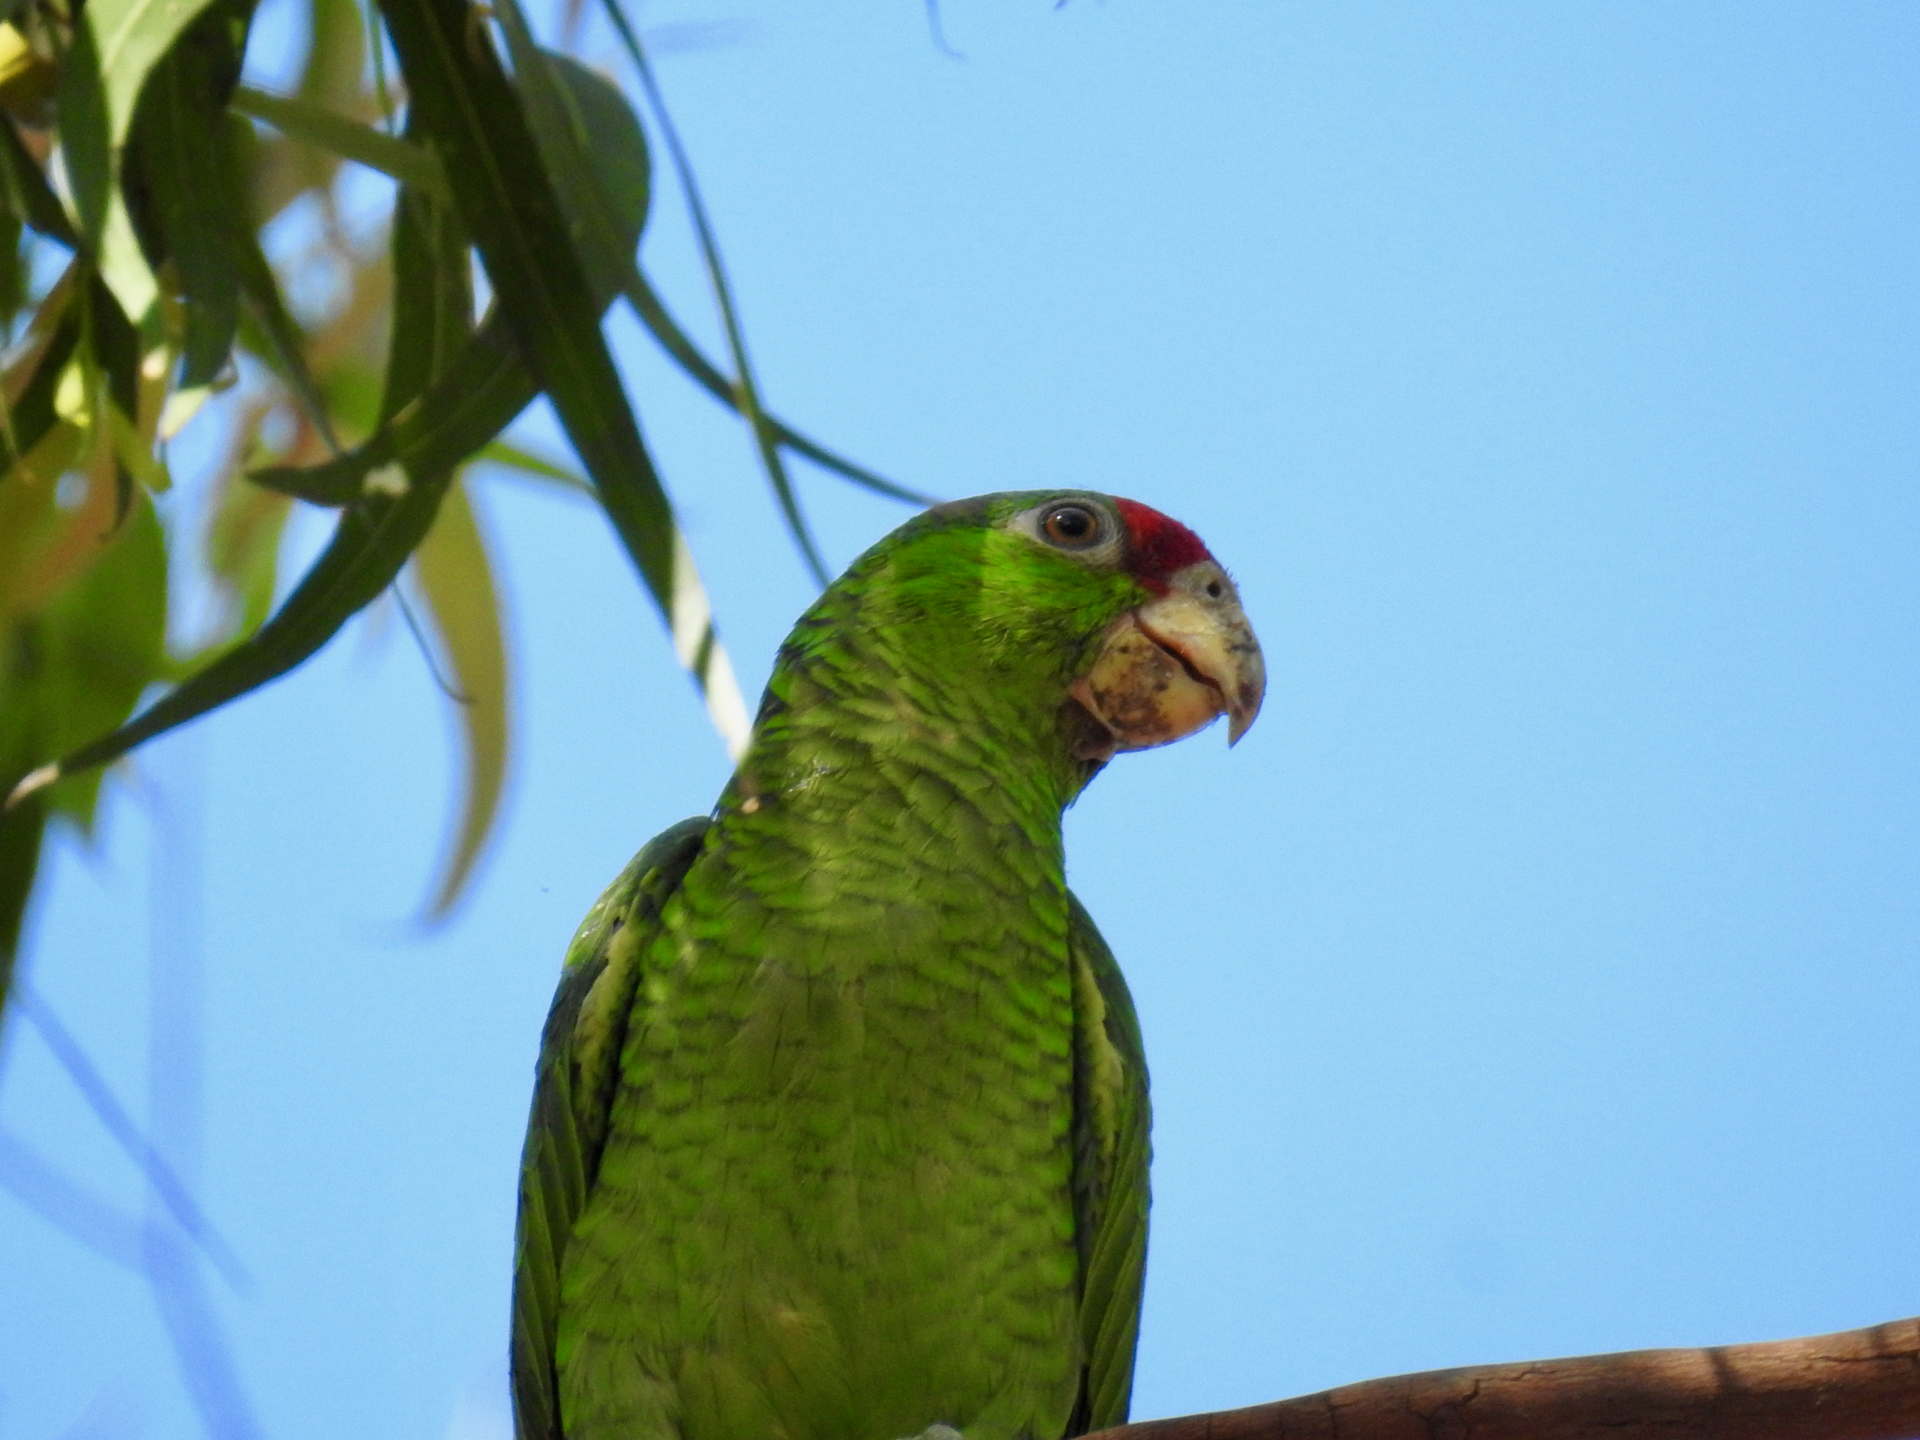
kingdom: Animalia
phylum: Chordata
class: Aves
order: Psittaciformes
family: Psittacidae
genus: Amazona
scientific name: Amazona viridigenalis
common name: Red-crowned amazon
